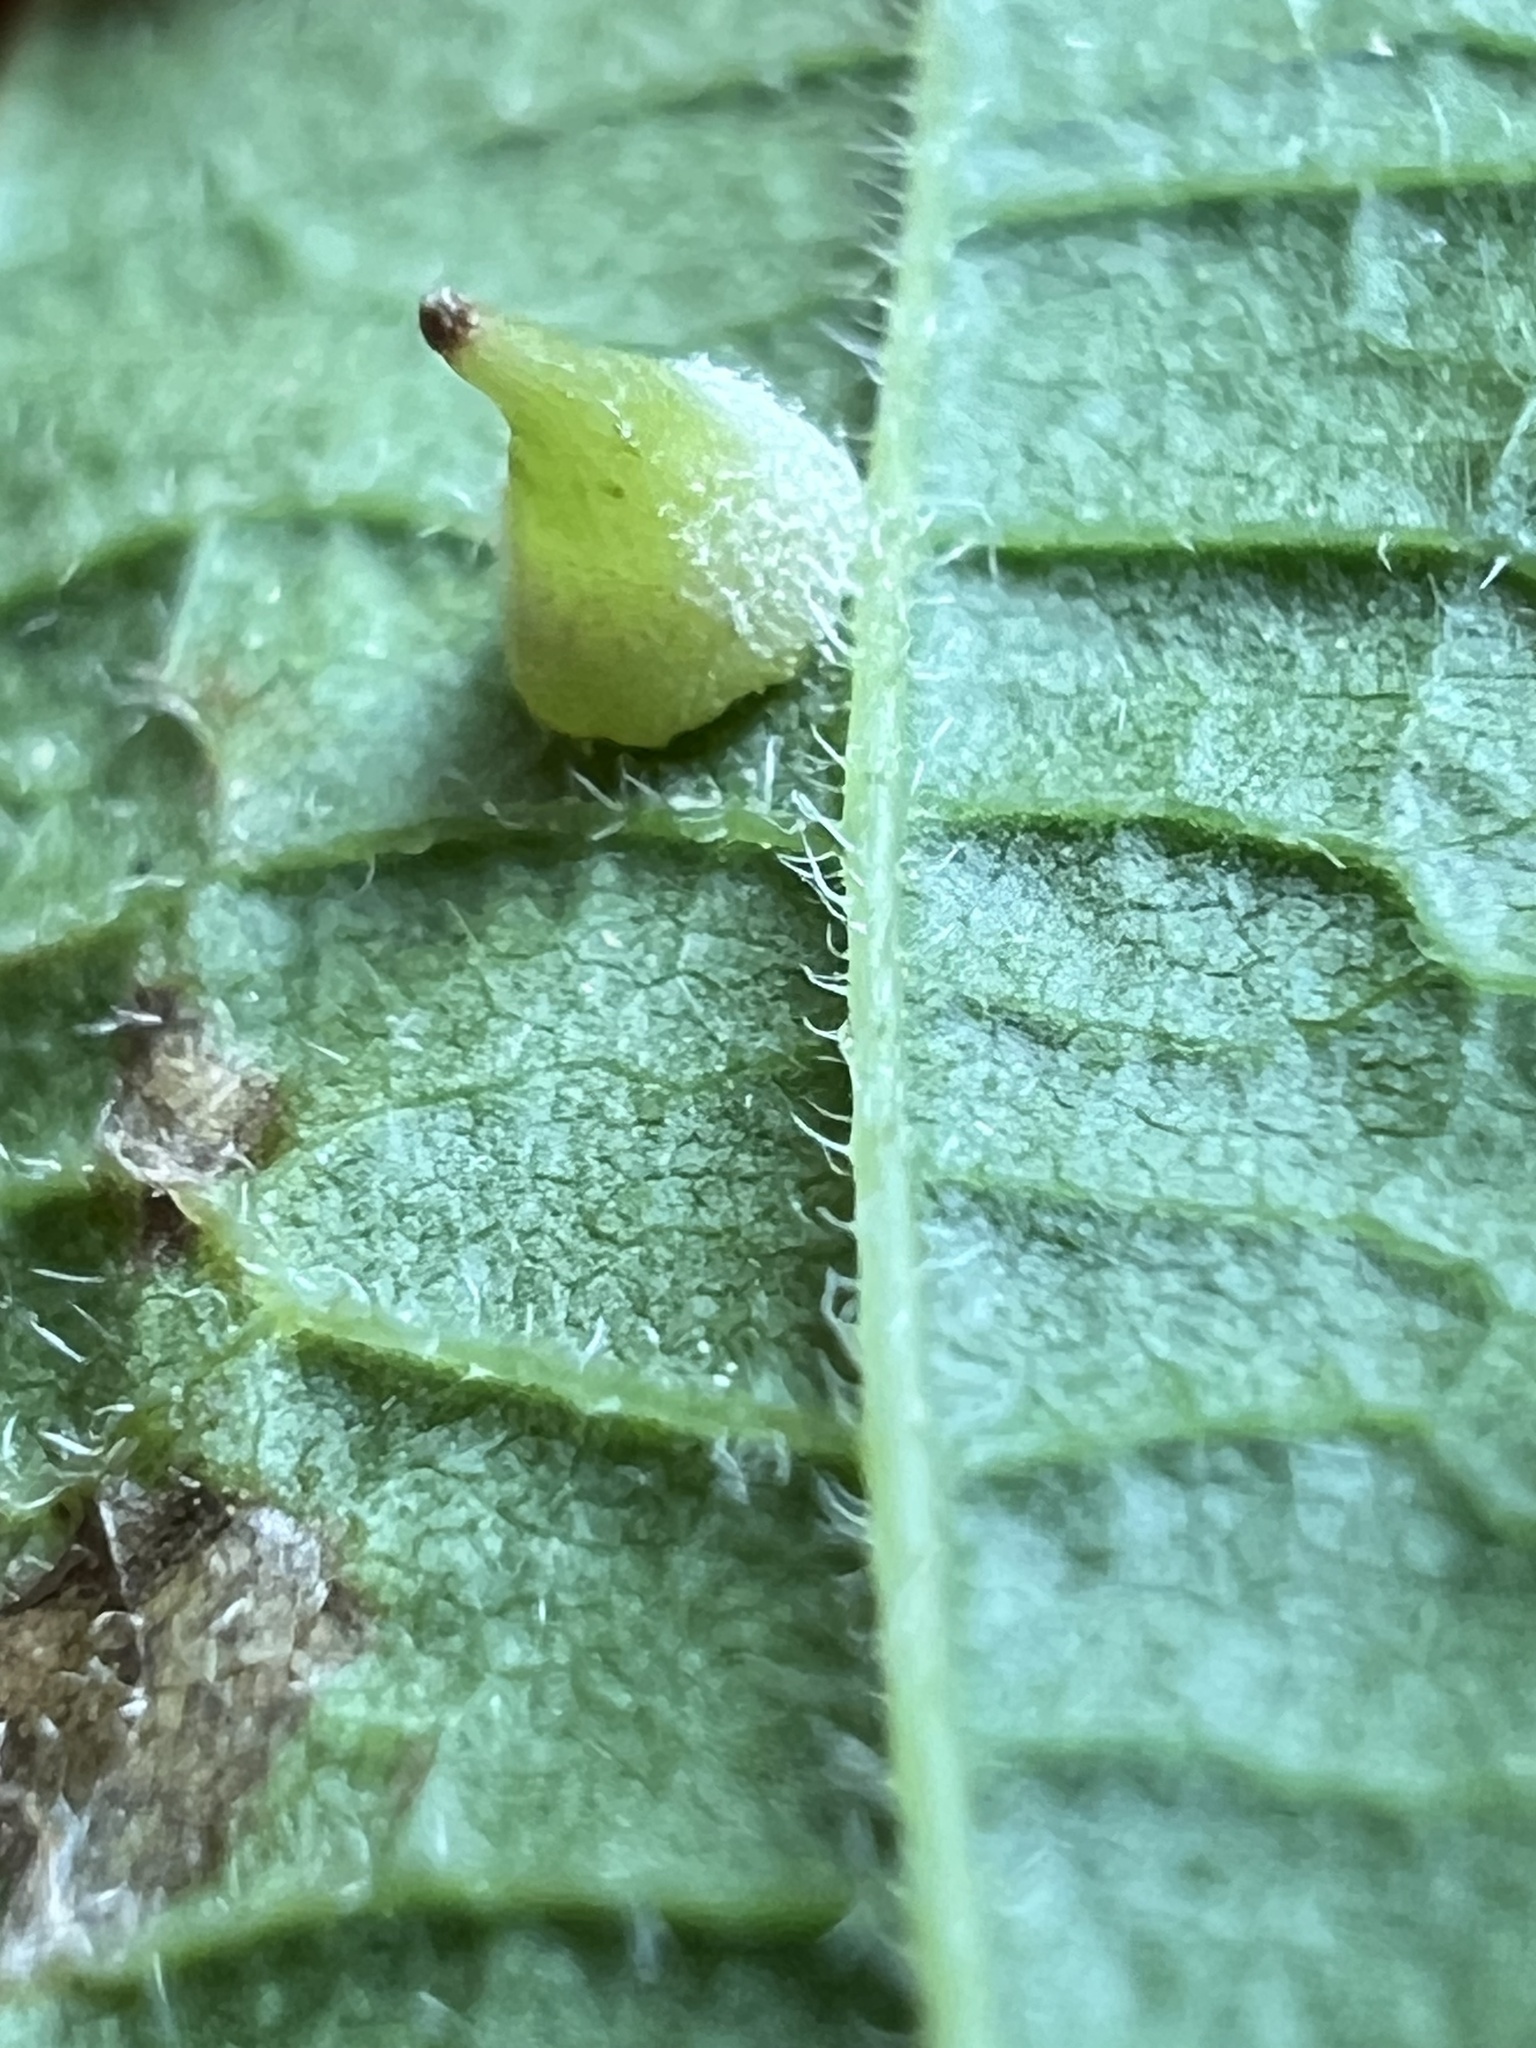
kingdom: Animalia
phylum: Arthropoda
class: Insecta
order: Diptera
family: Cecidomyiidae
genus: Celticecis
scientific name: Celticecis spiniformis
